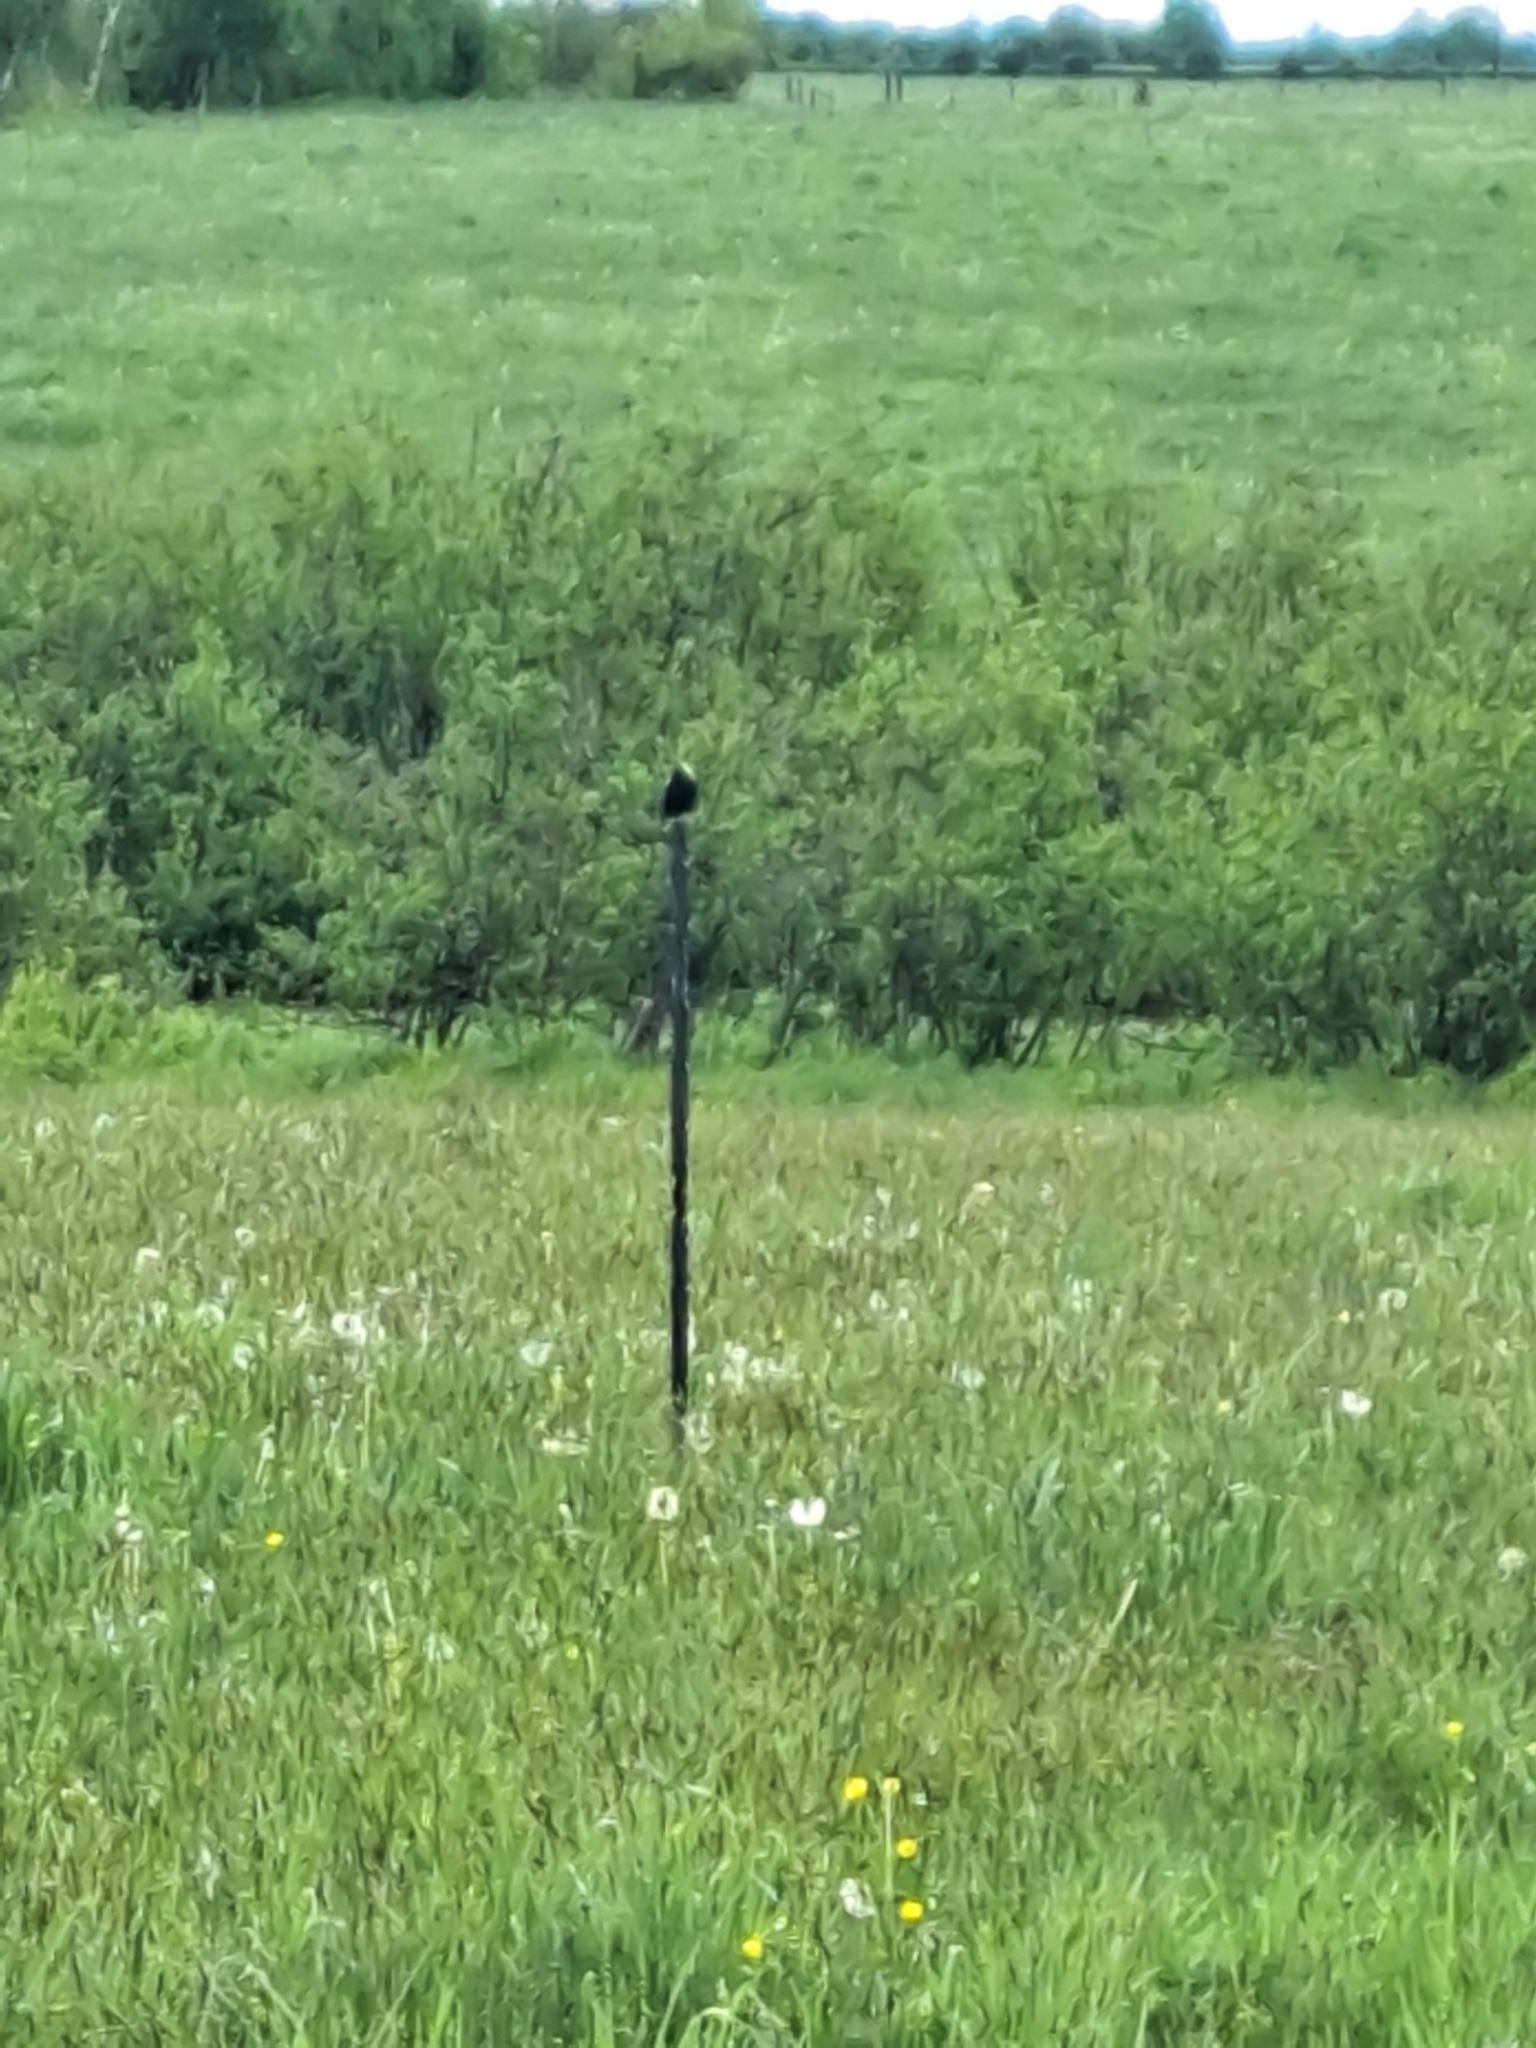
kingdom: Animalia
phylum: Chordata
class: Aves
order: Passeriformes
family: Icteridae
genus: Dolichonyx
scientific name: Dolichonyx oryzivorus
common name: Bobolink
